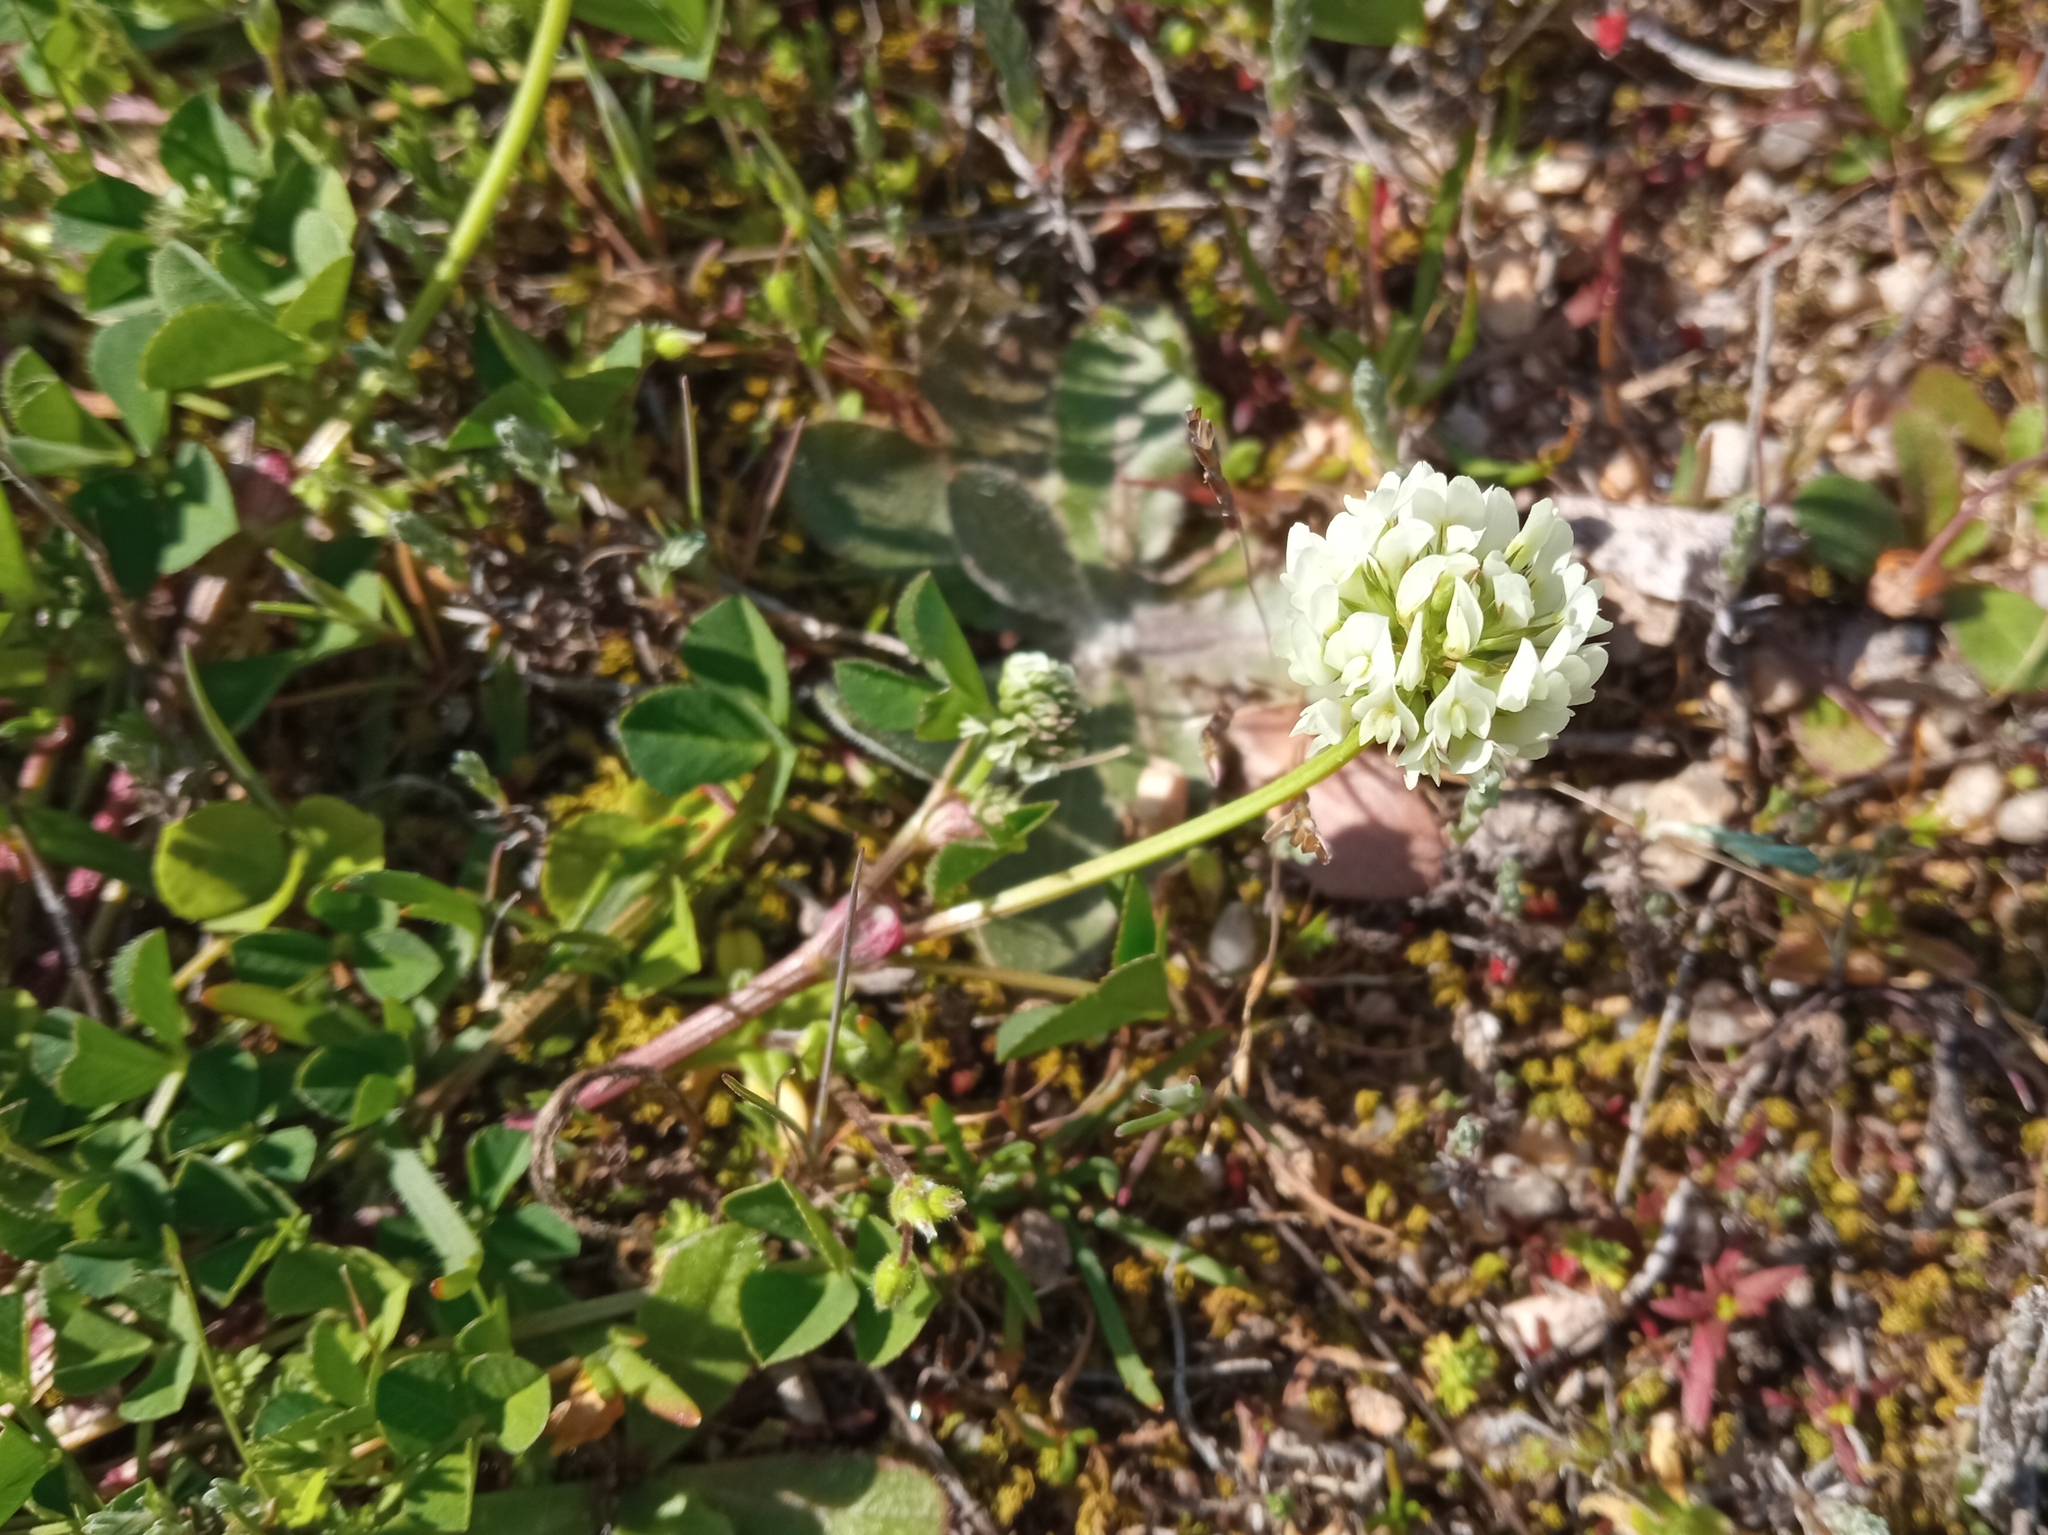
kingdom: Plantae
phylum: Tracheophyta
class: Magnoliopsida
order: Fabales
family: Fabaceae
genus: Trifolium
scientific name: Trifolium nigrescens
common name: Small white clover
